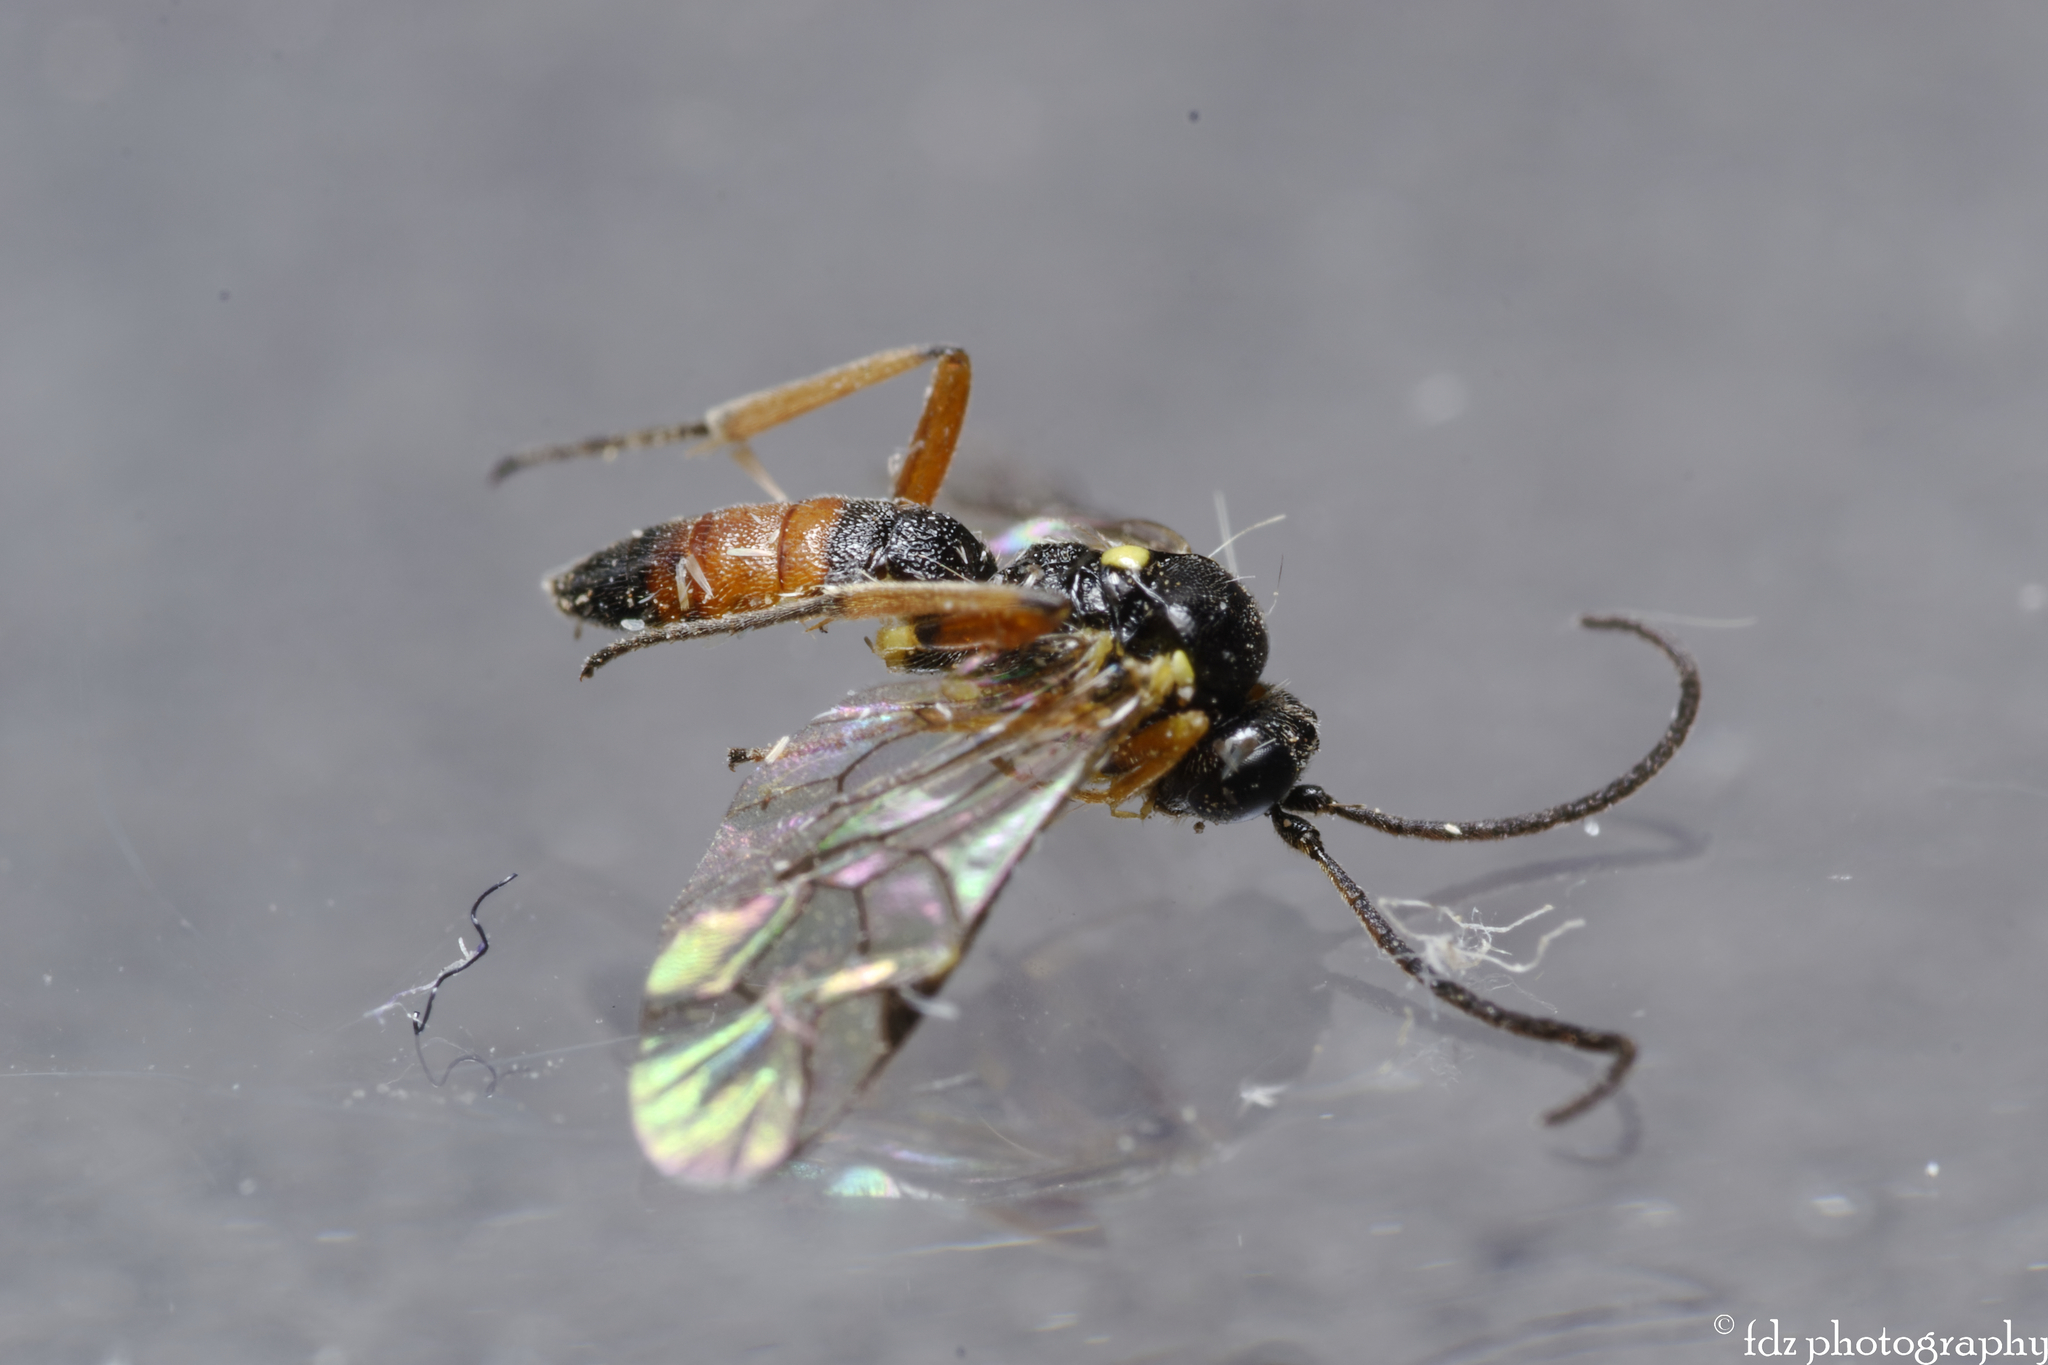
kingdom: Animalia
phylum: Arthropoda
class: Insecta
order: Hymenoptera
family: Ichneumonidae
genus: Syrphophilus
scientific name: Syrphophilus bizonarius
